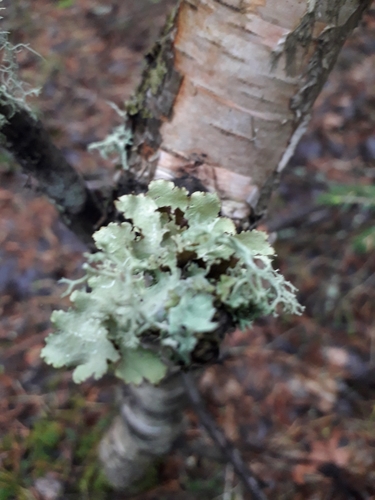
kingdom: Fungi
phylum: Ascomycota
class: Lecanoromycetes
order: Lecanorales
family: Parmeliaceae
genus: Platismatia
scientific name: Platismatia glauca
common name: Varied rag lichen
